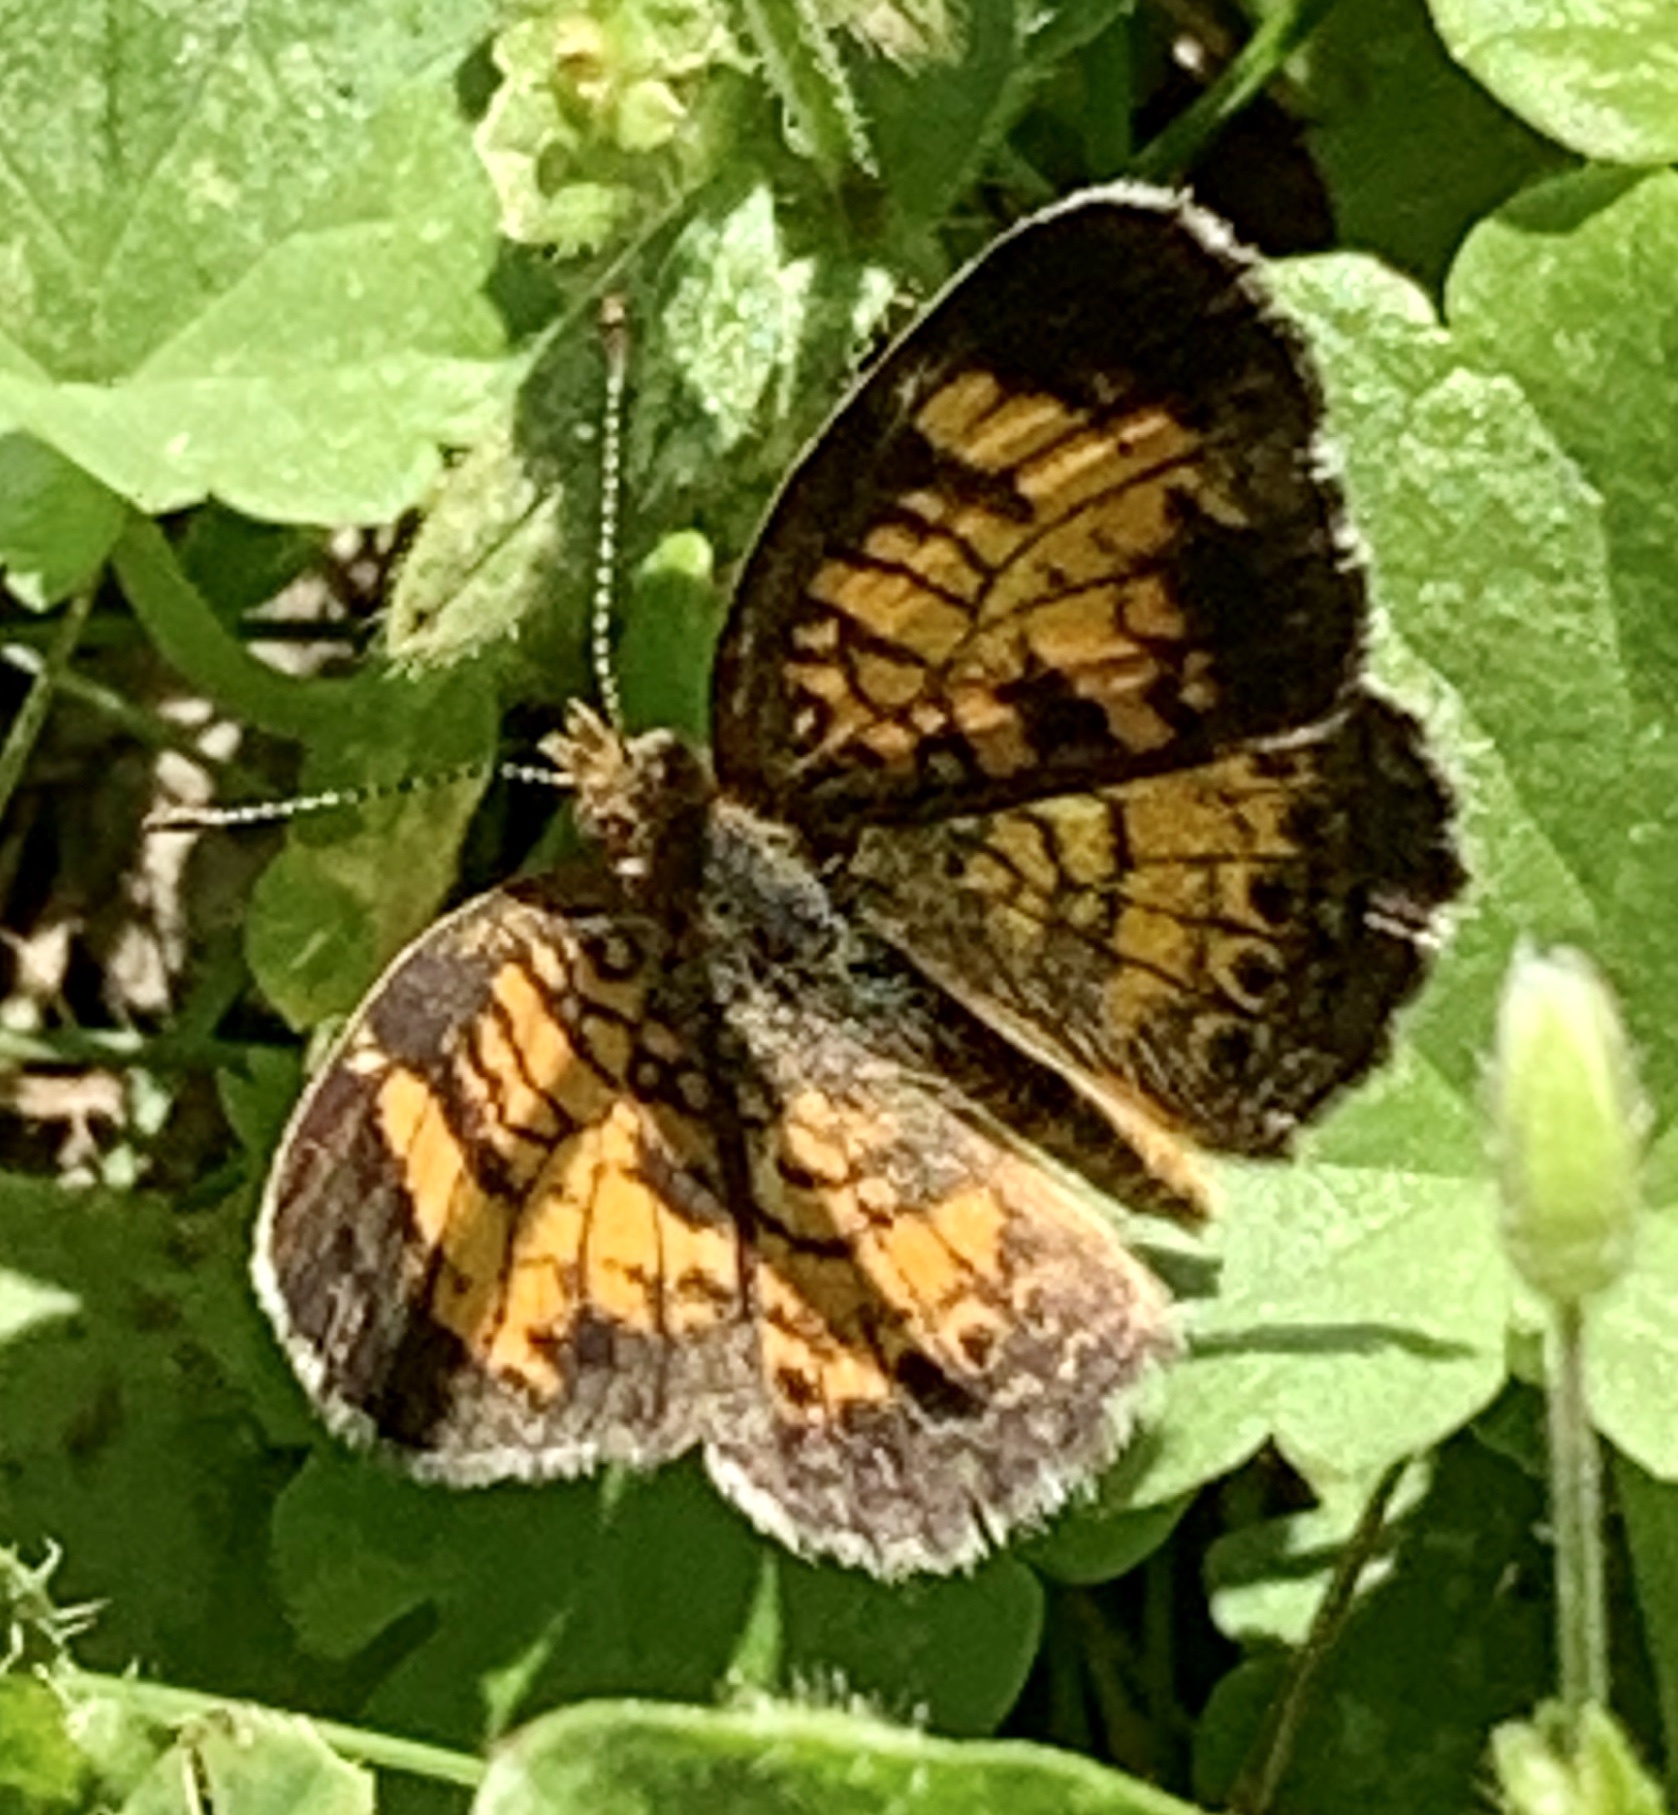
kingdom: Animalia
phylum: Arthropoda
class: Insecta
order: Lepidoptera
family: Nymphalidae
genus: Phyciodes
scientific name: Phyciodes tharos
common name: Pearl crescent
